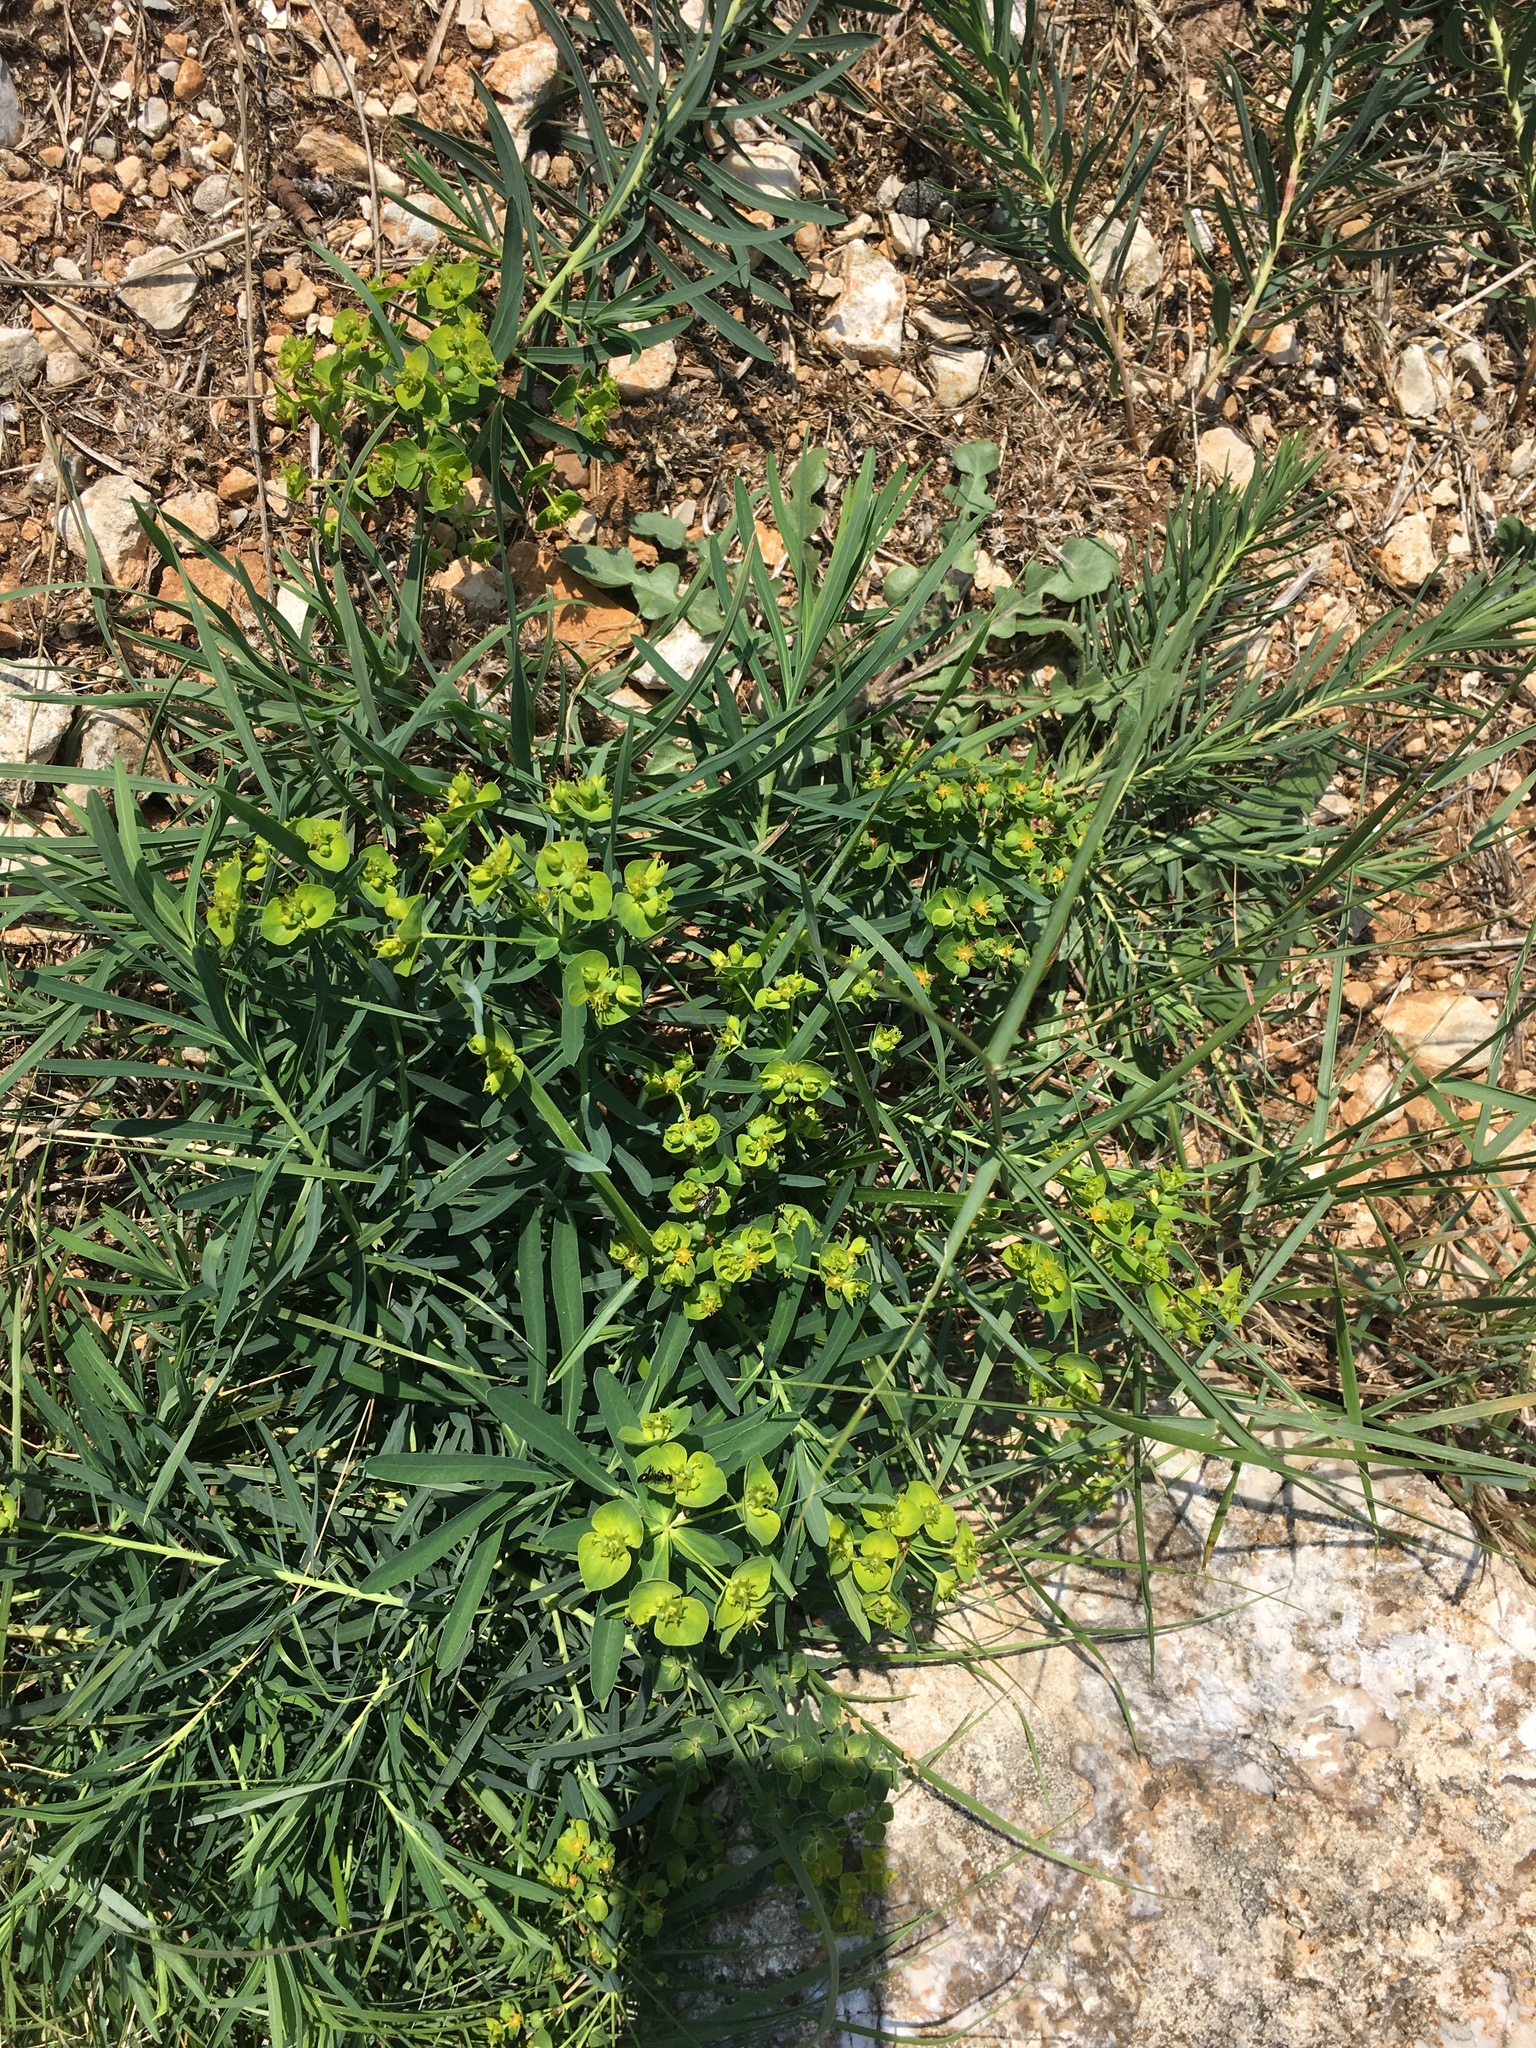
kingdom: Plantae
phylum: Tracheophyta
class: Magnoliopsida
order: Malpighiales
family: Euphorbiaceae
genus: Euphorbia
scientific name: Euphorbia cyparissias
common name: Cypress spurge
